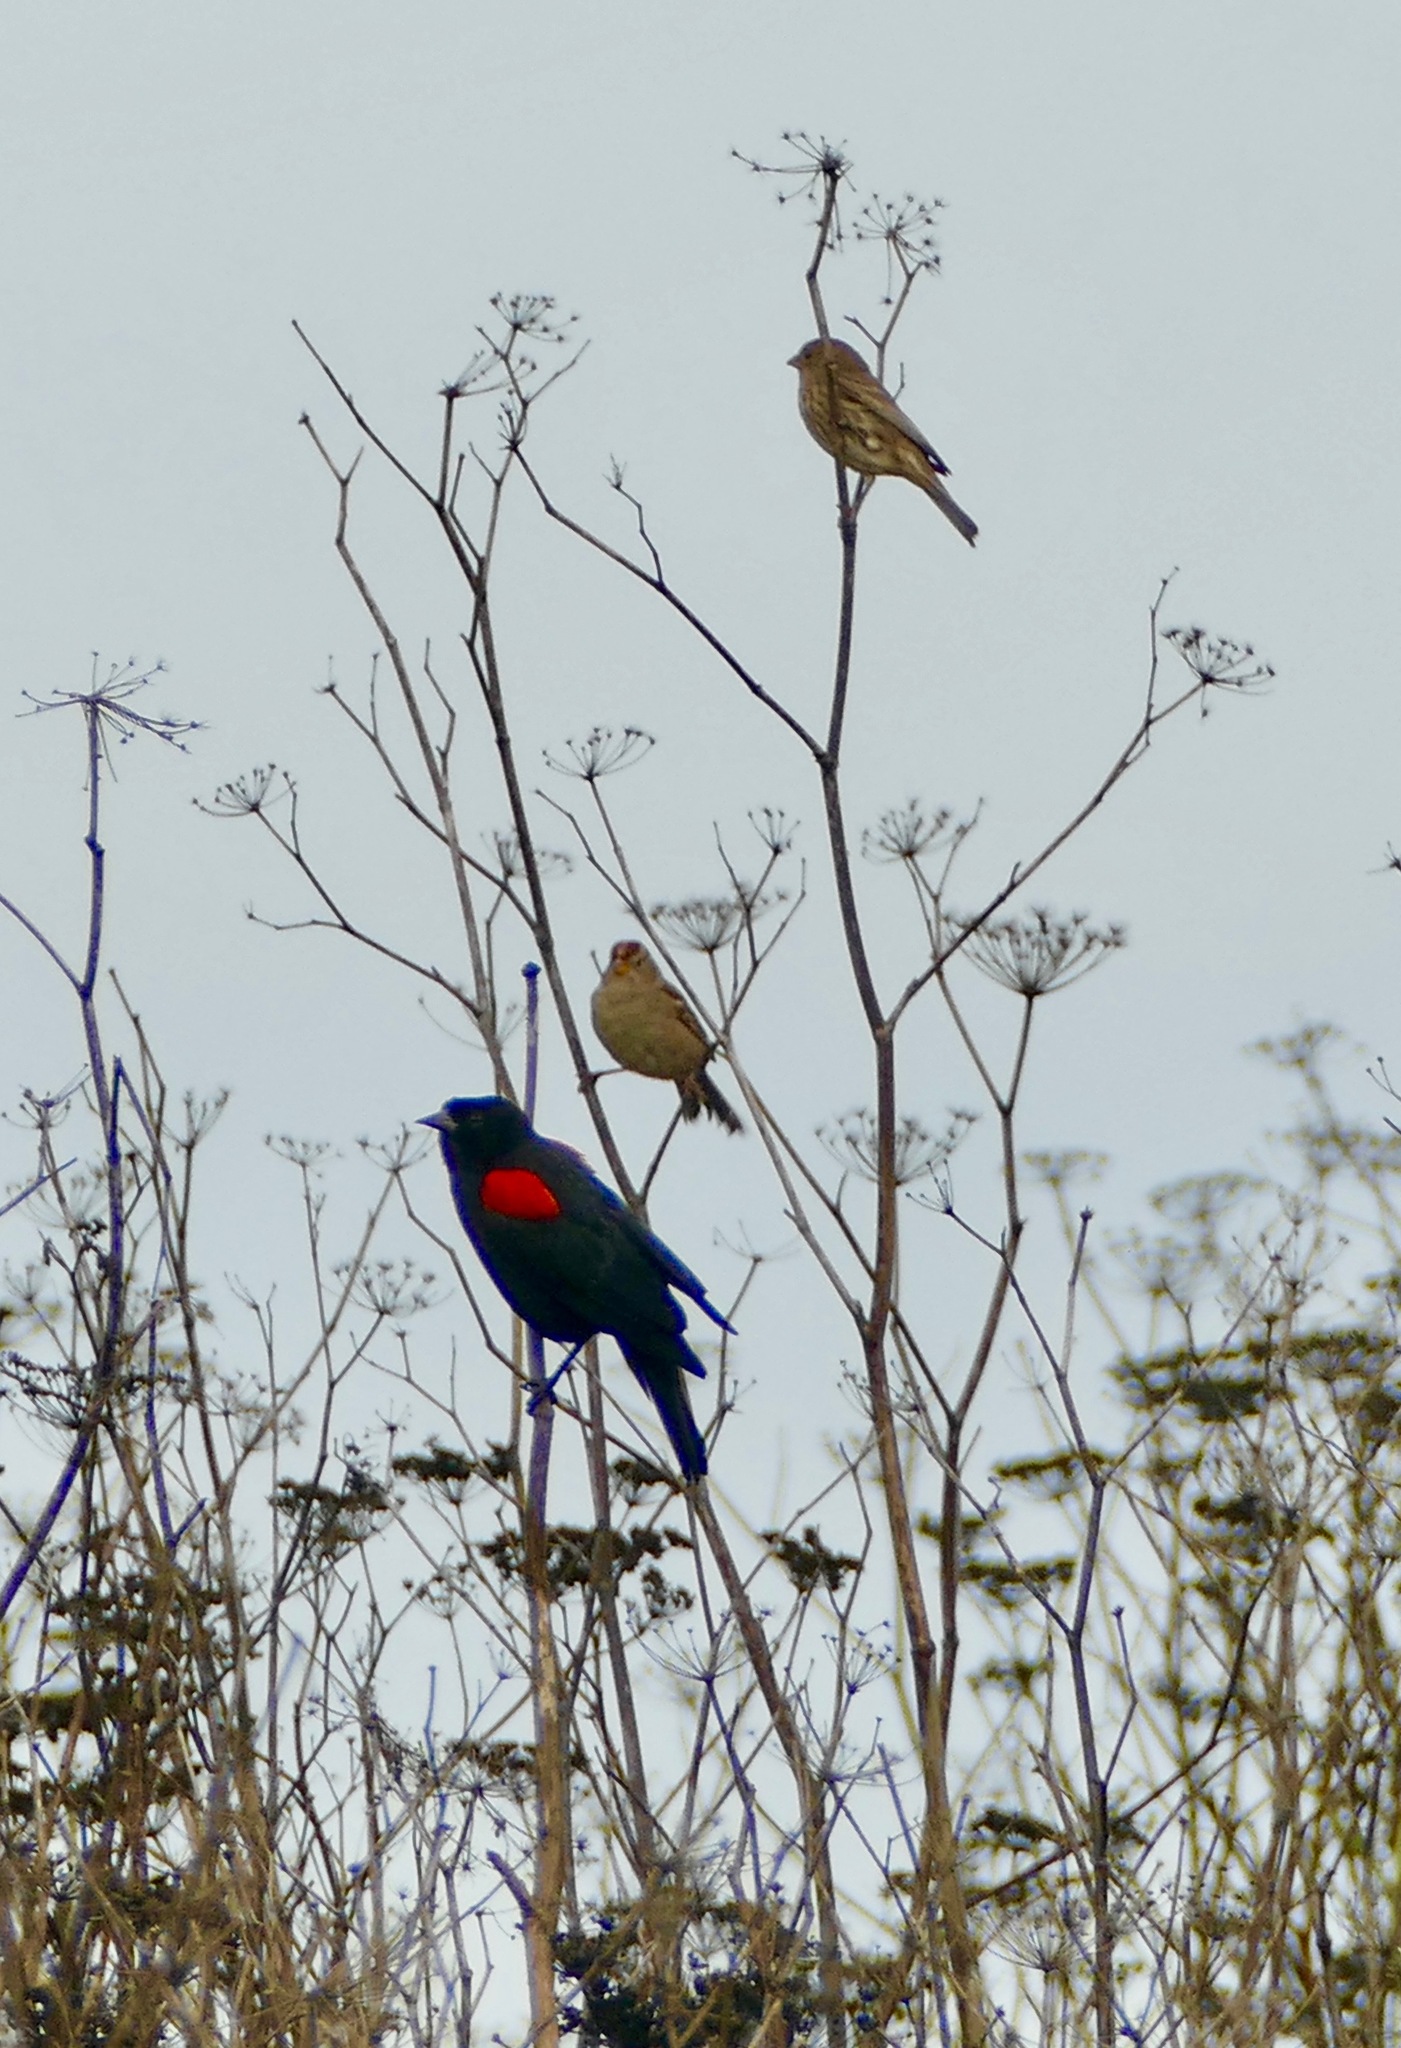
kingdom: Animalia
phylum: Chordata
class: Aves
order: Passeriformes
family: Icteridae
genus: Agelaius
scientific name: Agelaius phoeniceus
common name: Red-winged blackbird
